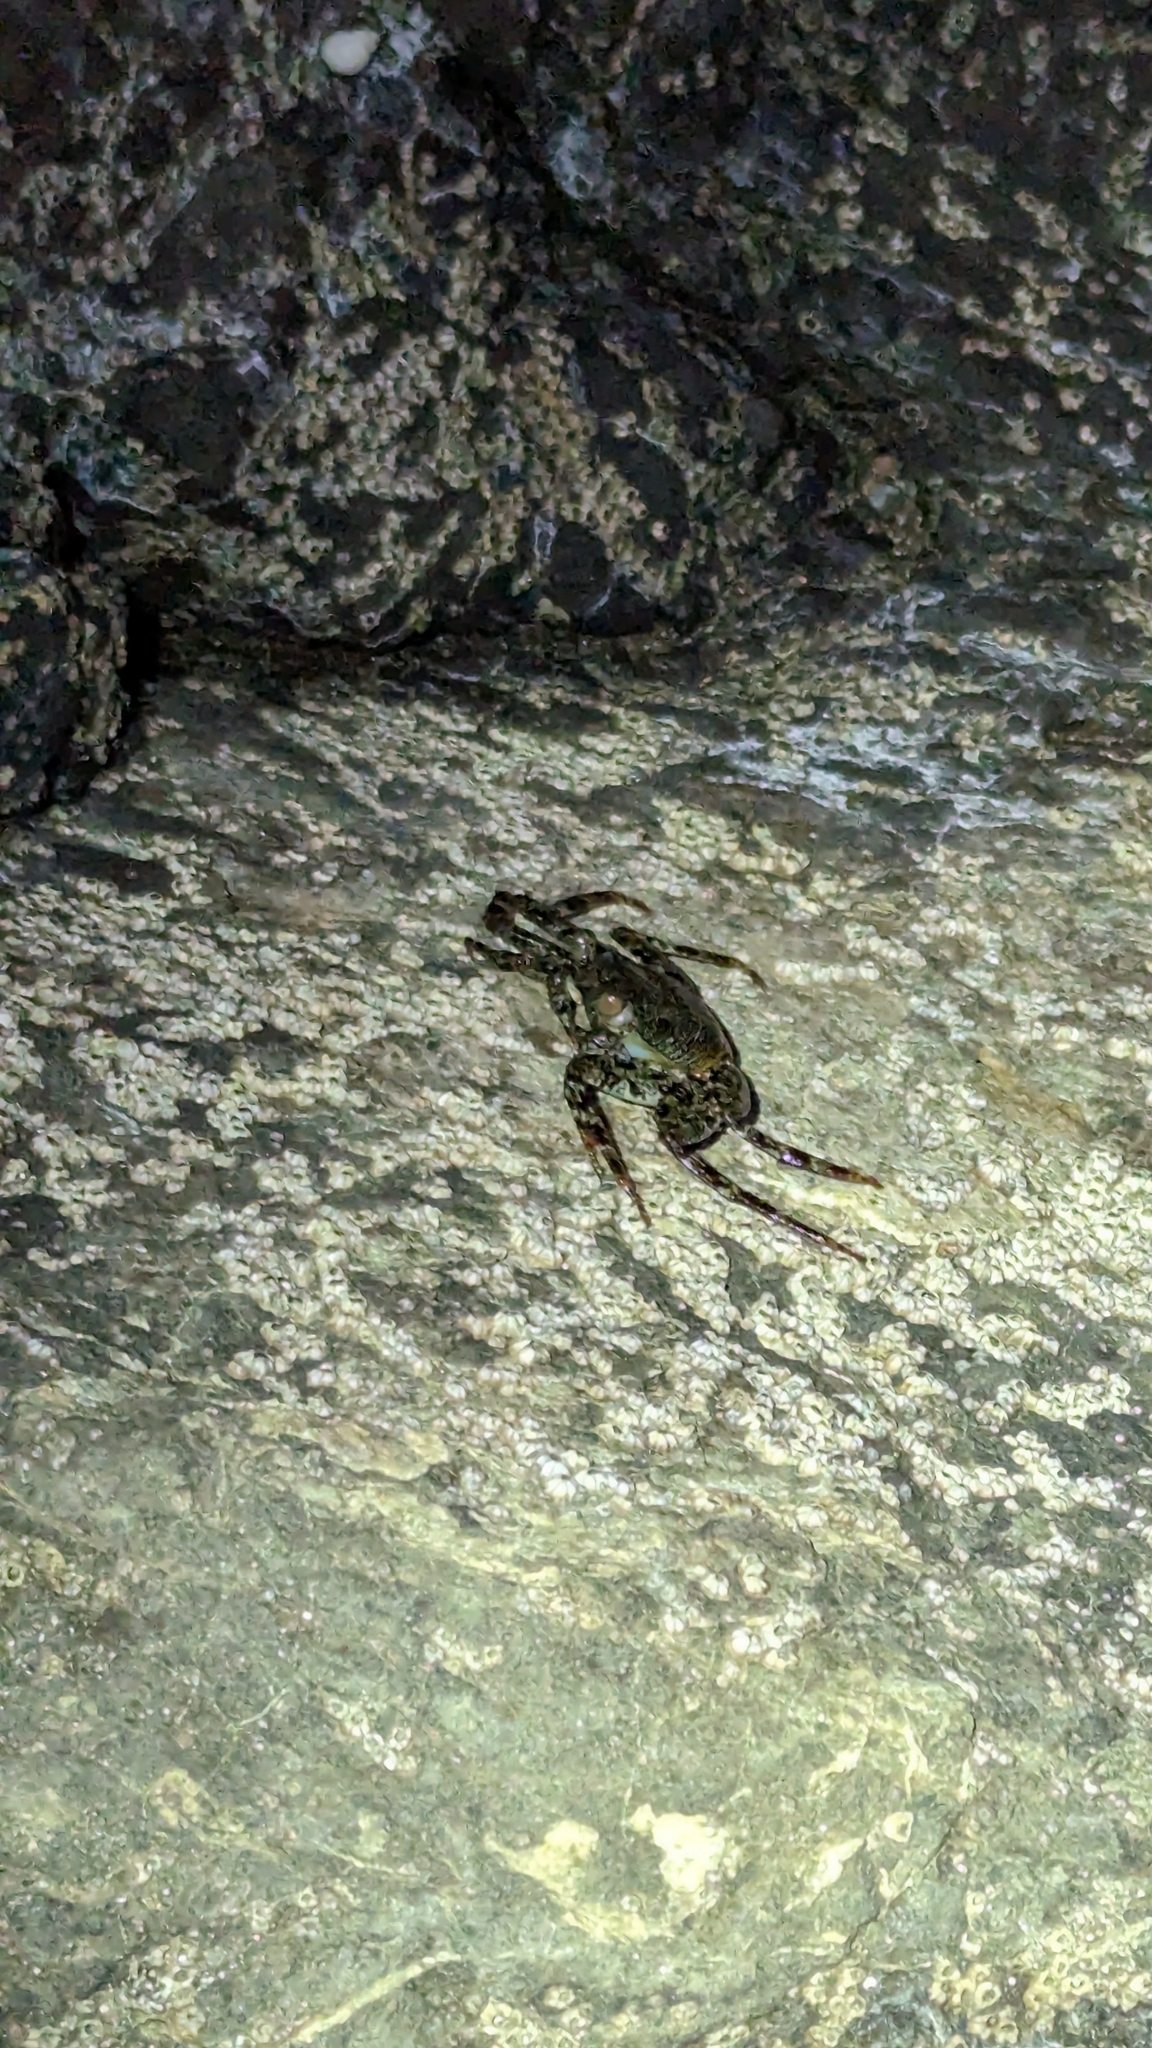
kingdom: Animalia
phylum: Arthropoda
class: Malacostraca
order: Decapoda
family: Grapsidae
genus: Grapsus
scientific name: Grapsus grapsus
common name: Sally lightfoot
